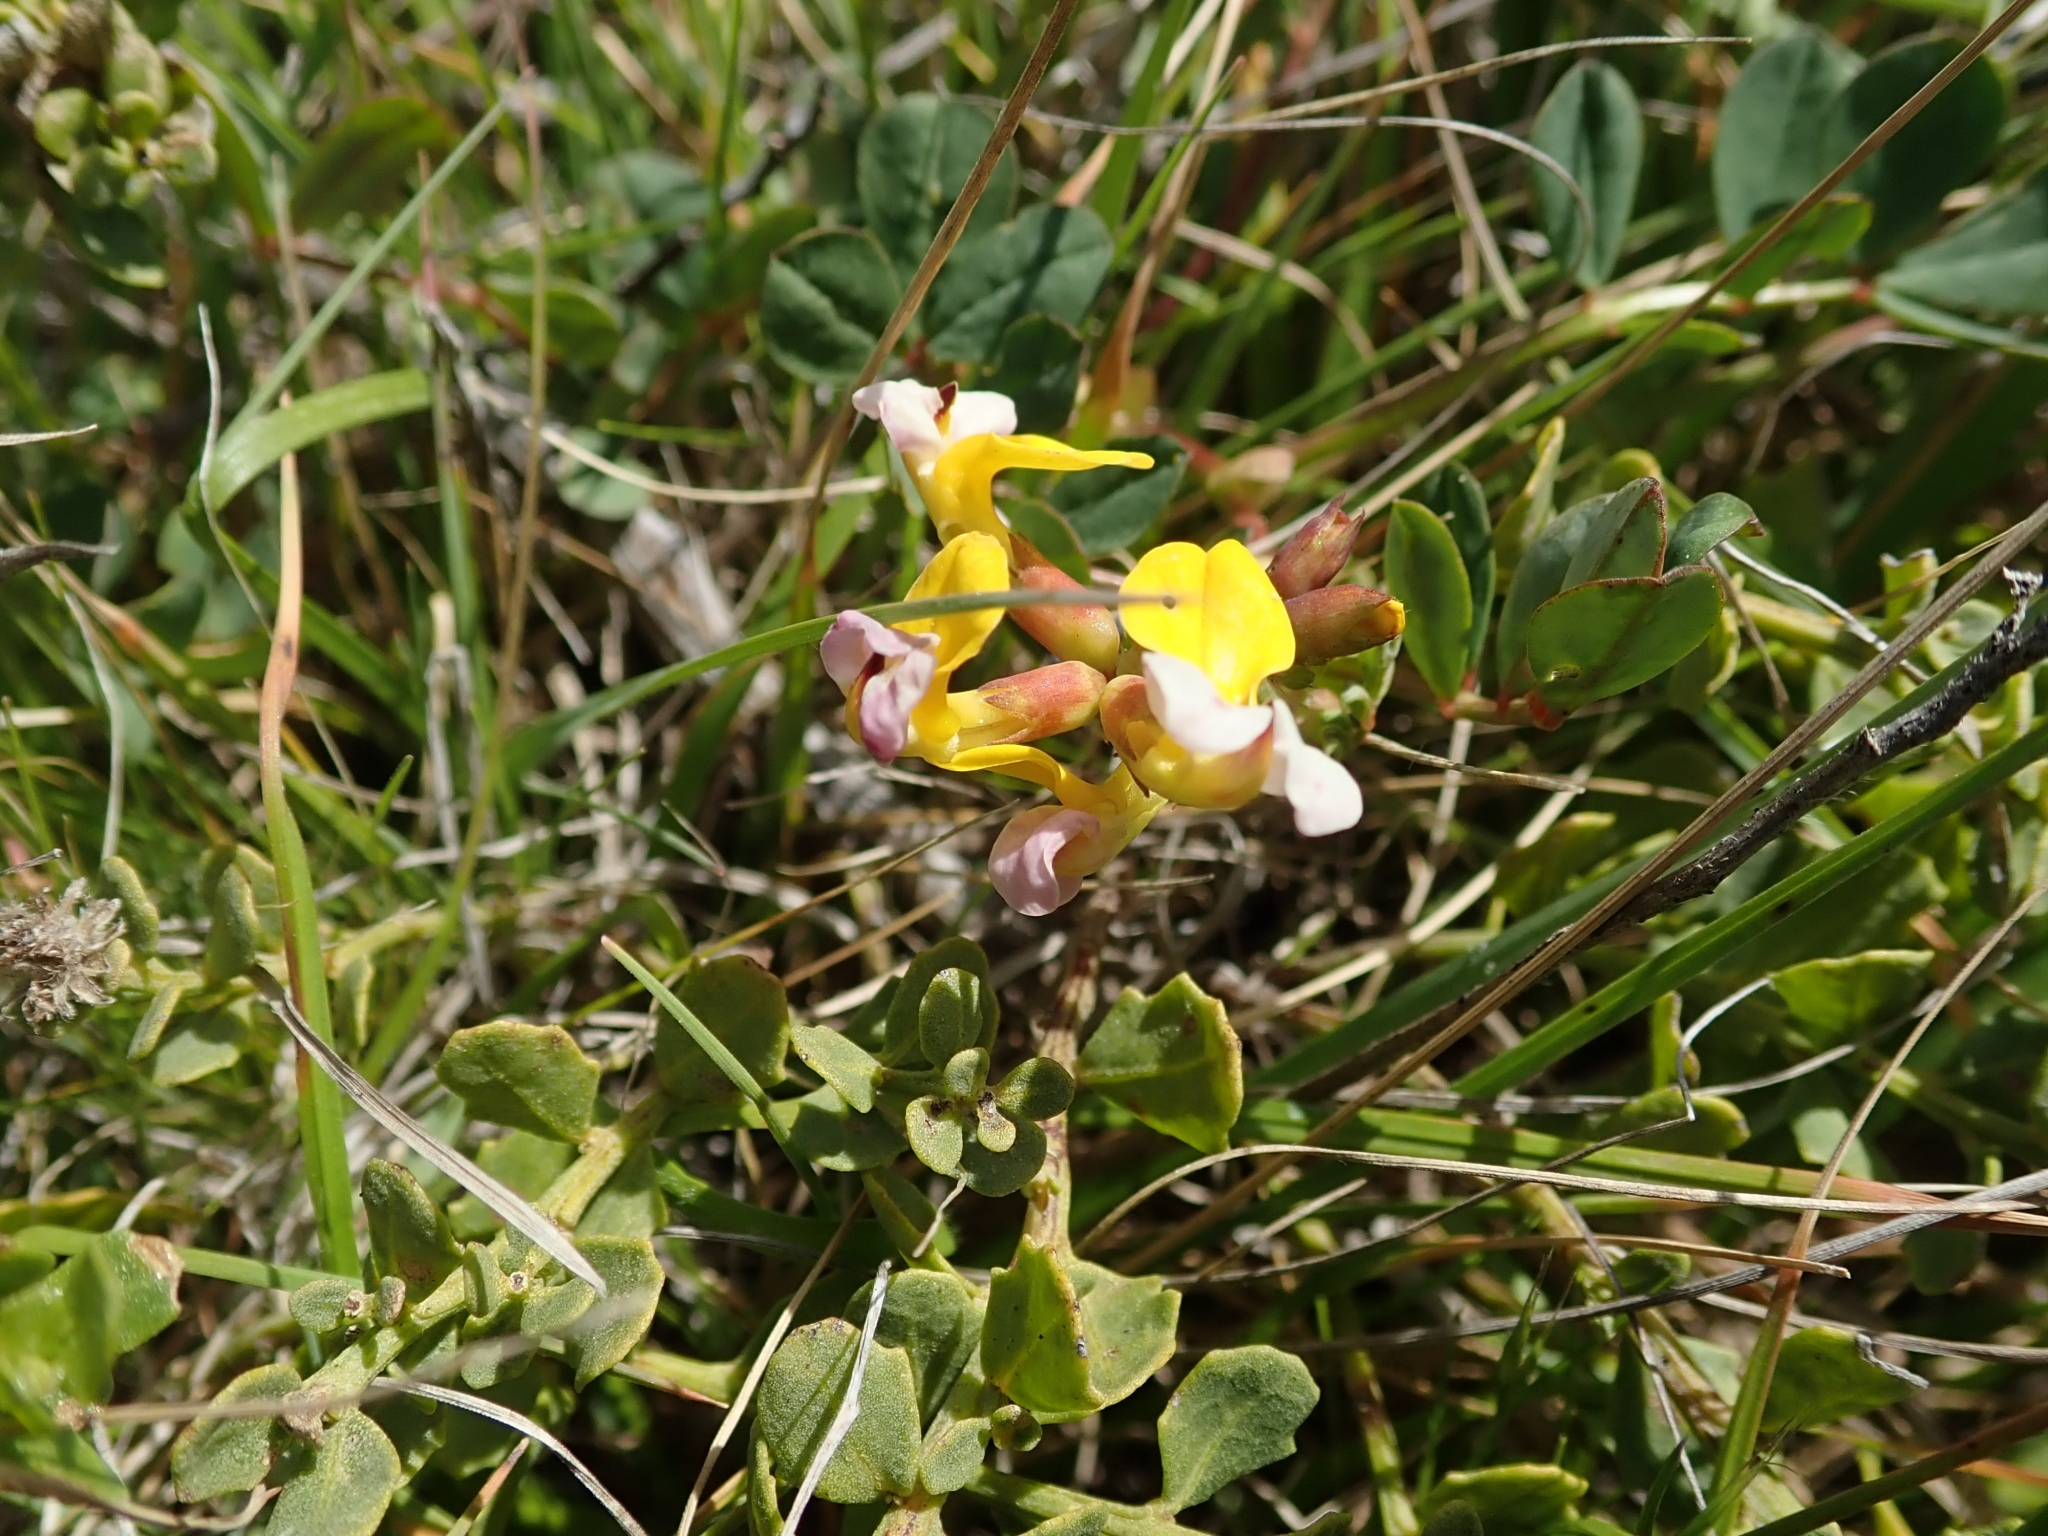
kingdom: Plantae
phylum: Tracheophyta
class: Magnoliopsida
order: Fabales
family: Fabaceae
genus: Hosackia
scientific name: Hosackia gracilis
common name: Seaside bird's-foot lotus
